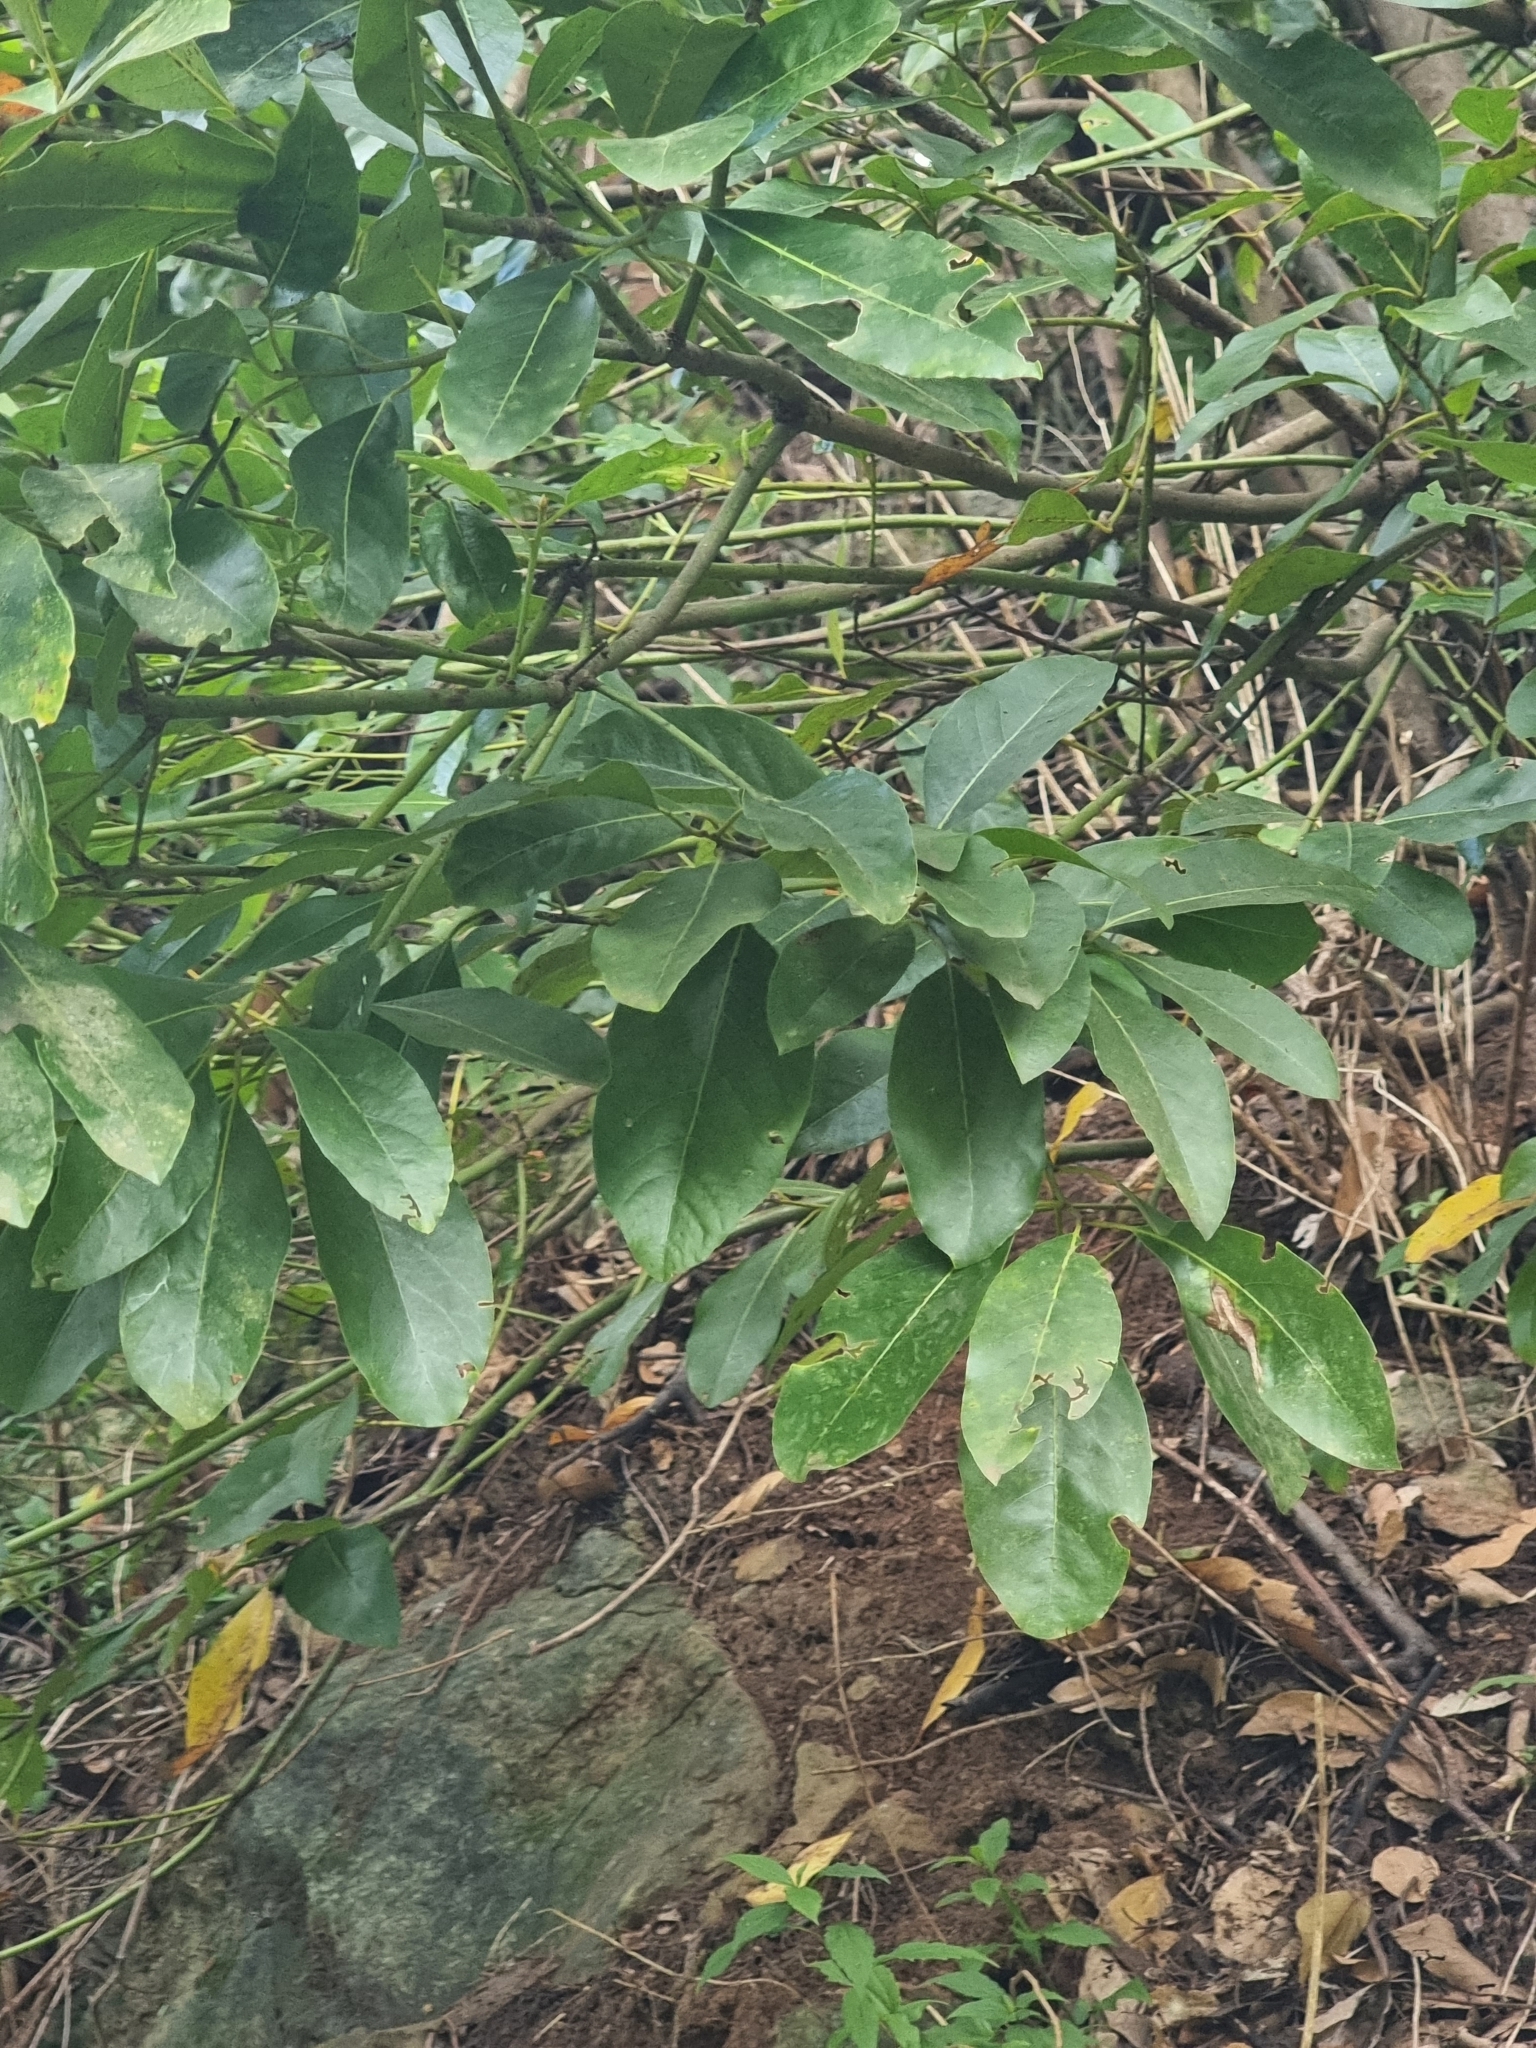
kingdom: Plantae
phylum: Tracheophyta
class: Magnoliopsida
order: Laurales
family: Lauraceae
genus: Laurus
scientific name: Laurus novocanariensis
